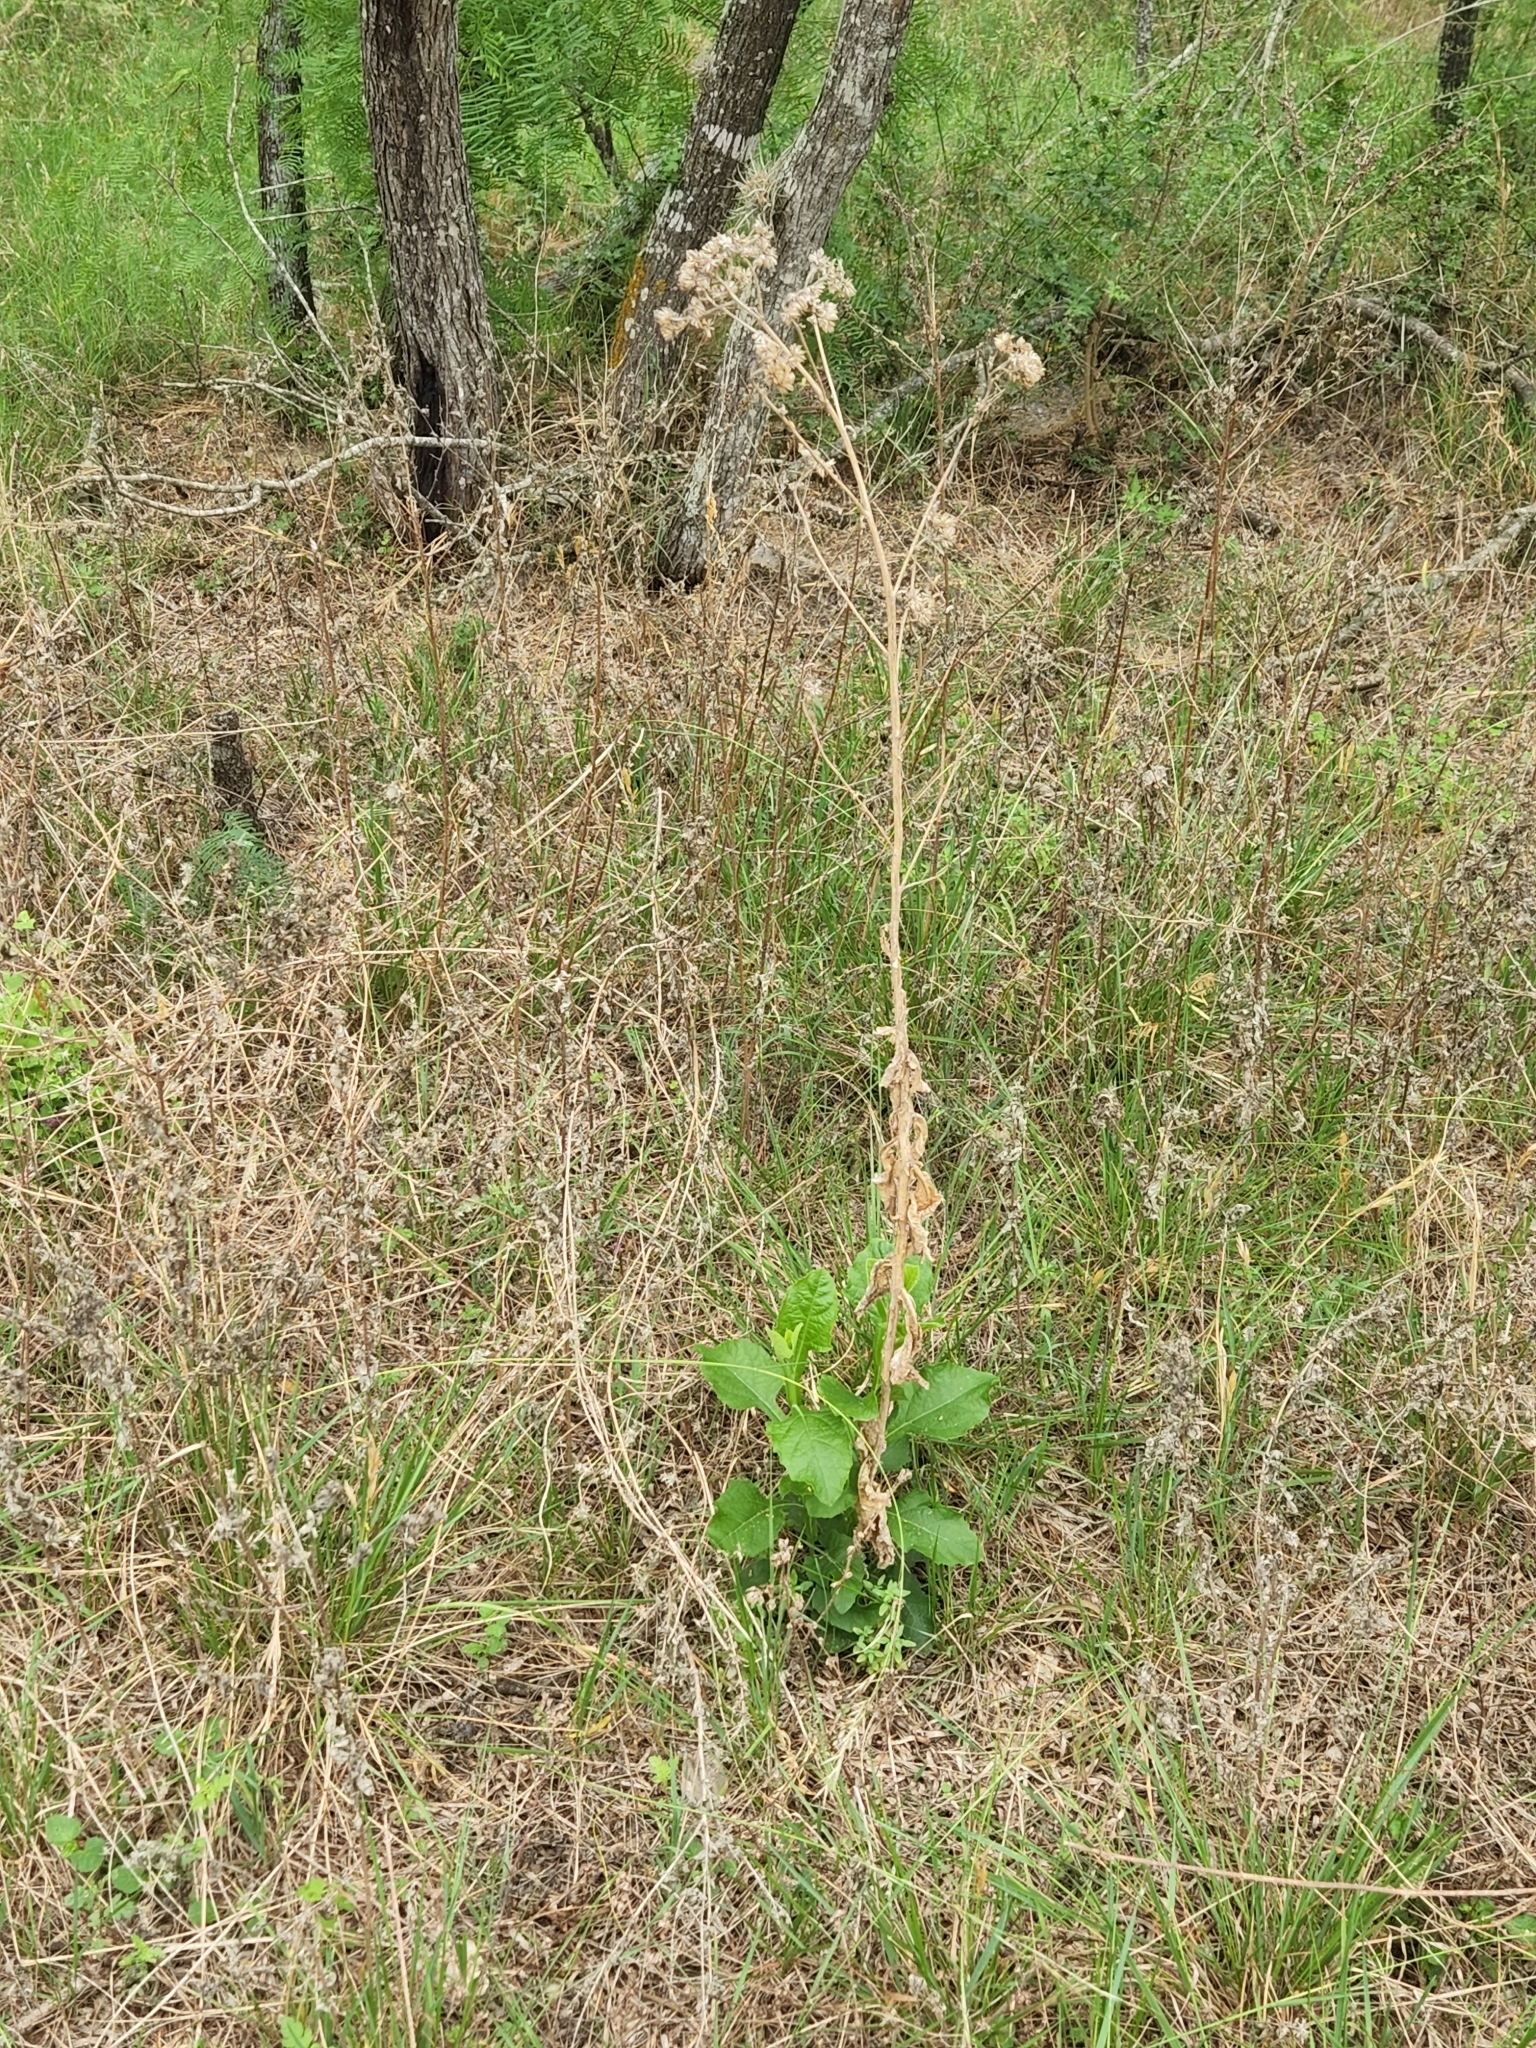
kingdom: Plantae
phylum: Tracheophyta
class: Magnoliopsida
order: Asterales
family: Asteraceae
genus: Verbesina
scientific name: Verbesina microptera
